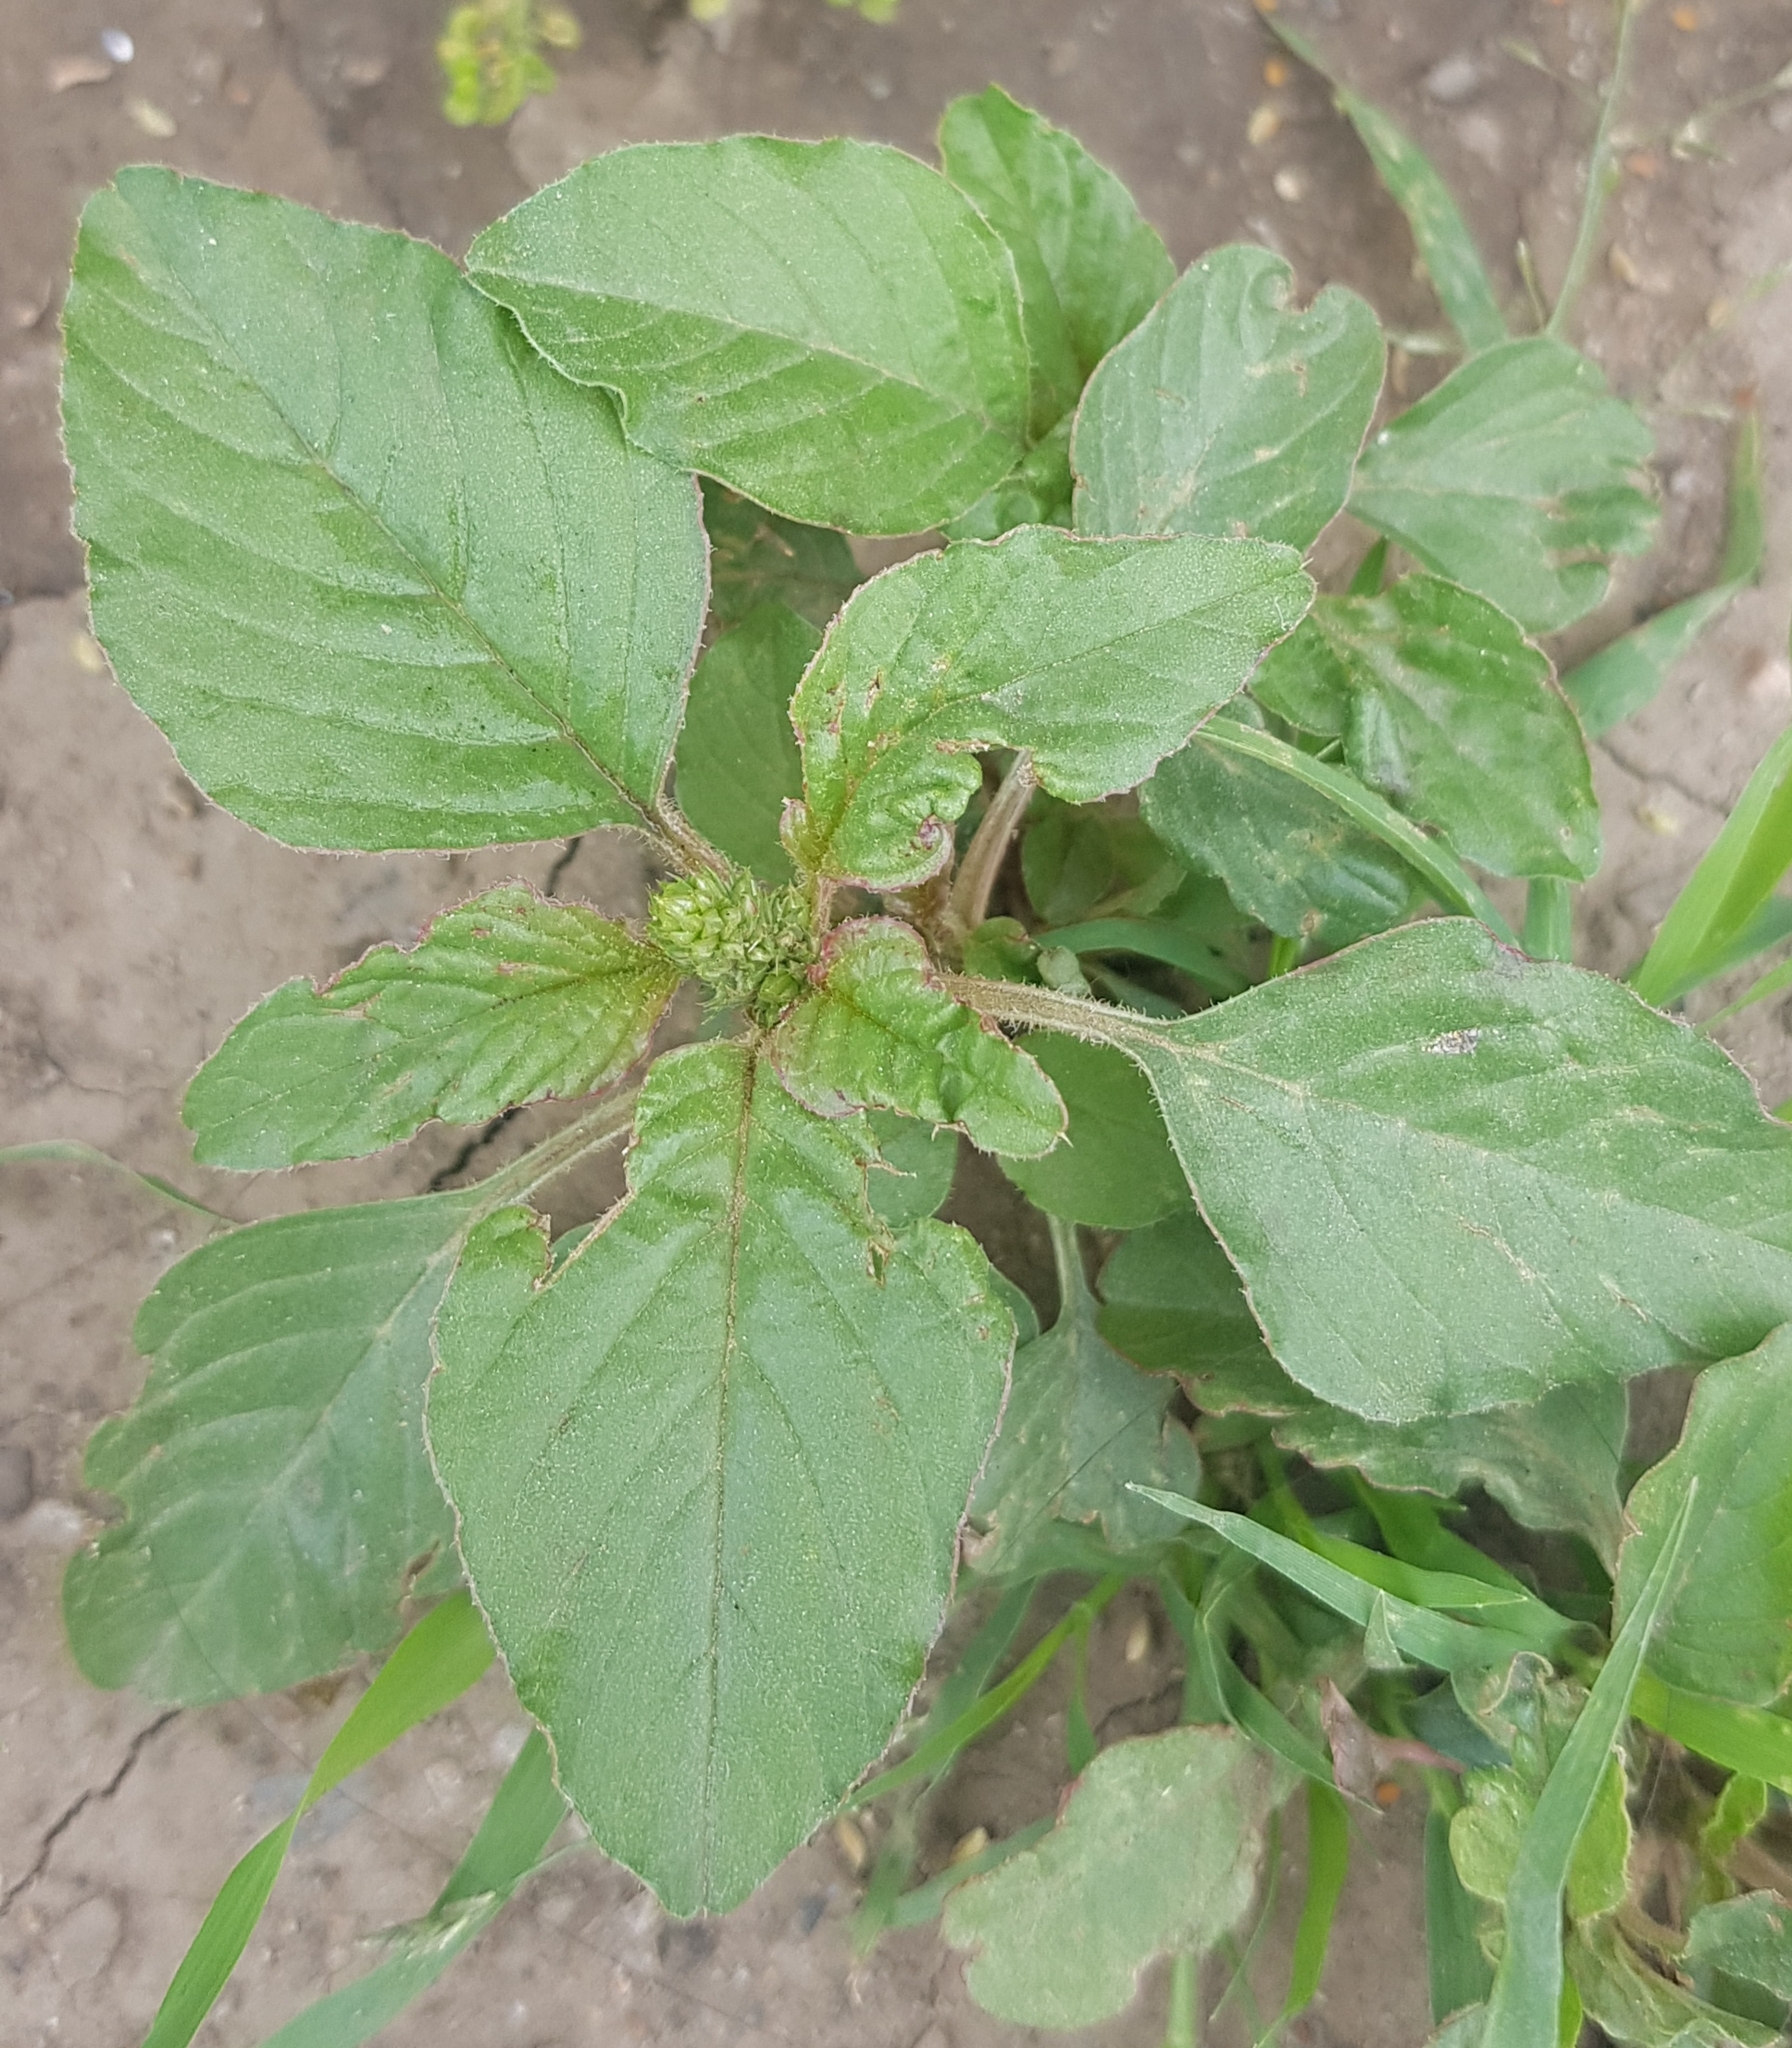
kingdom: Plantae
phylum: Tracheophyta
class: Magnoliopsida
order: Caryophyllales
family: Amaranthaceae
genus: Amaranthus
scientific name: Amaranthus retroflexus
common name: Redroot amaranth
